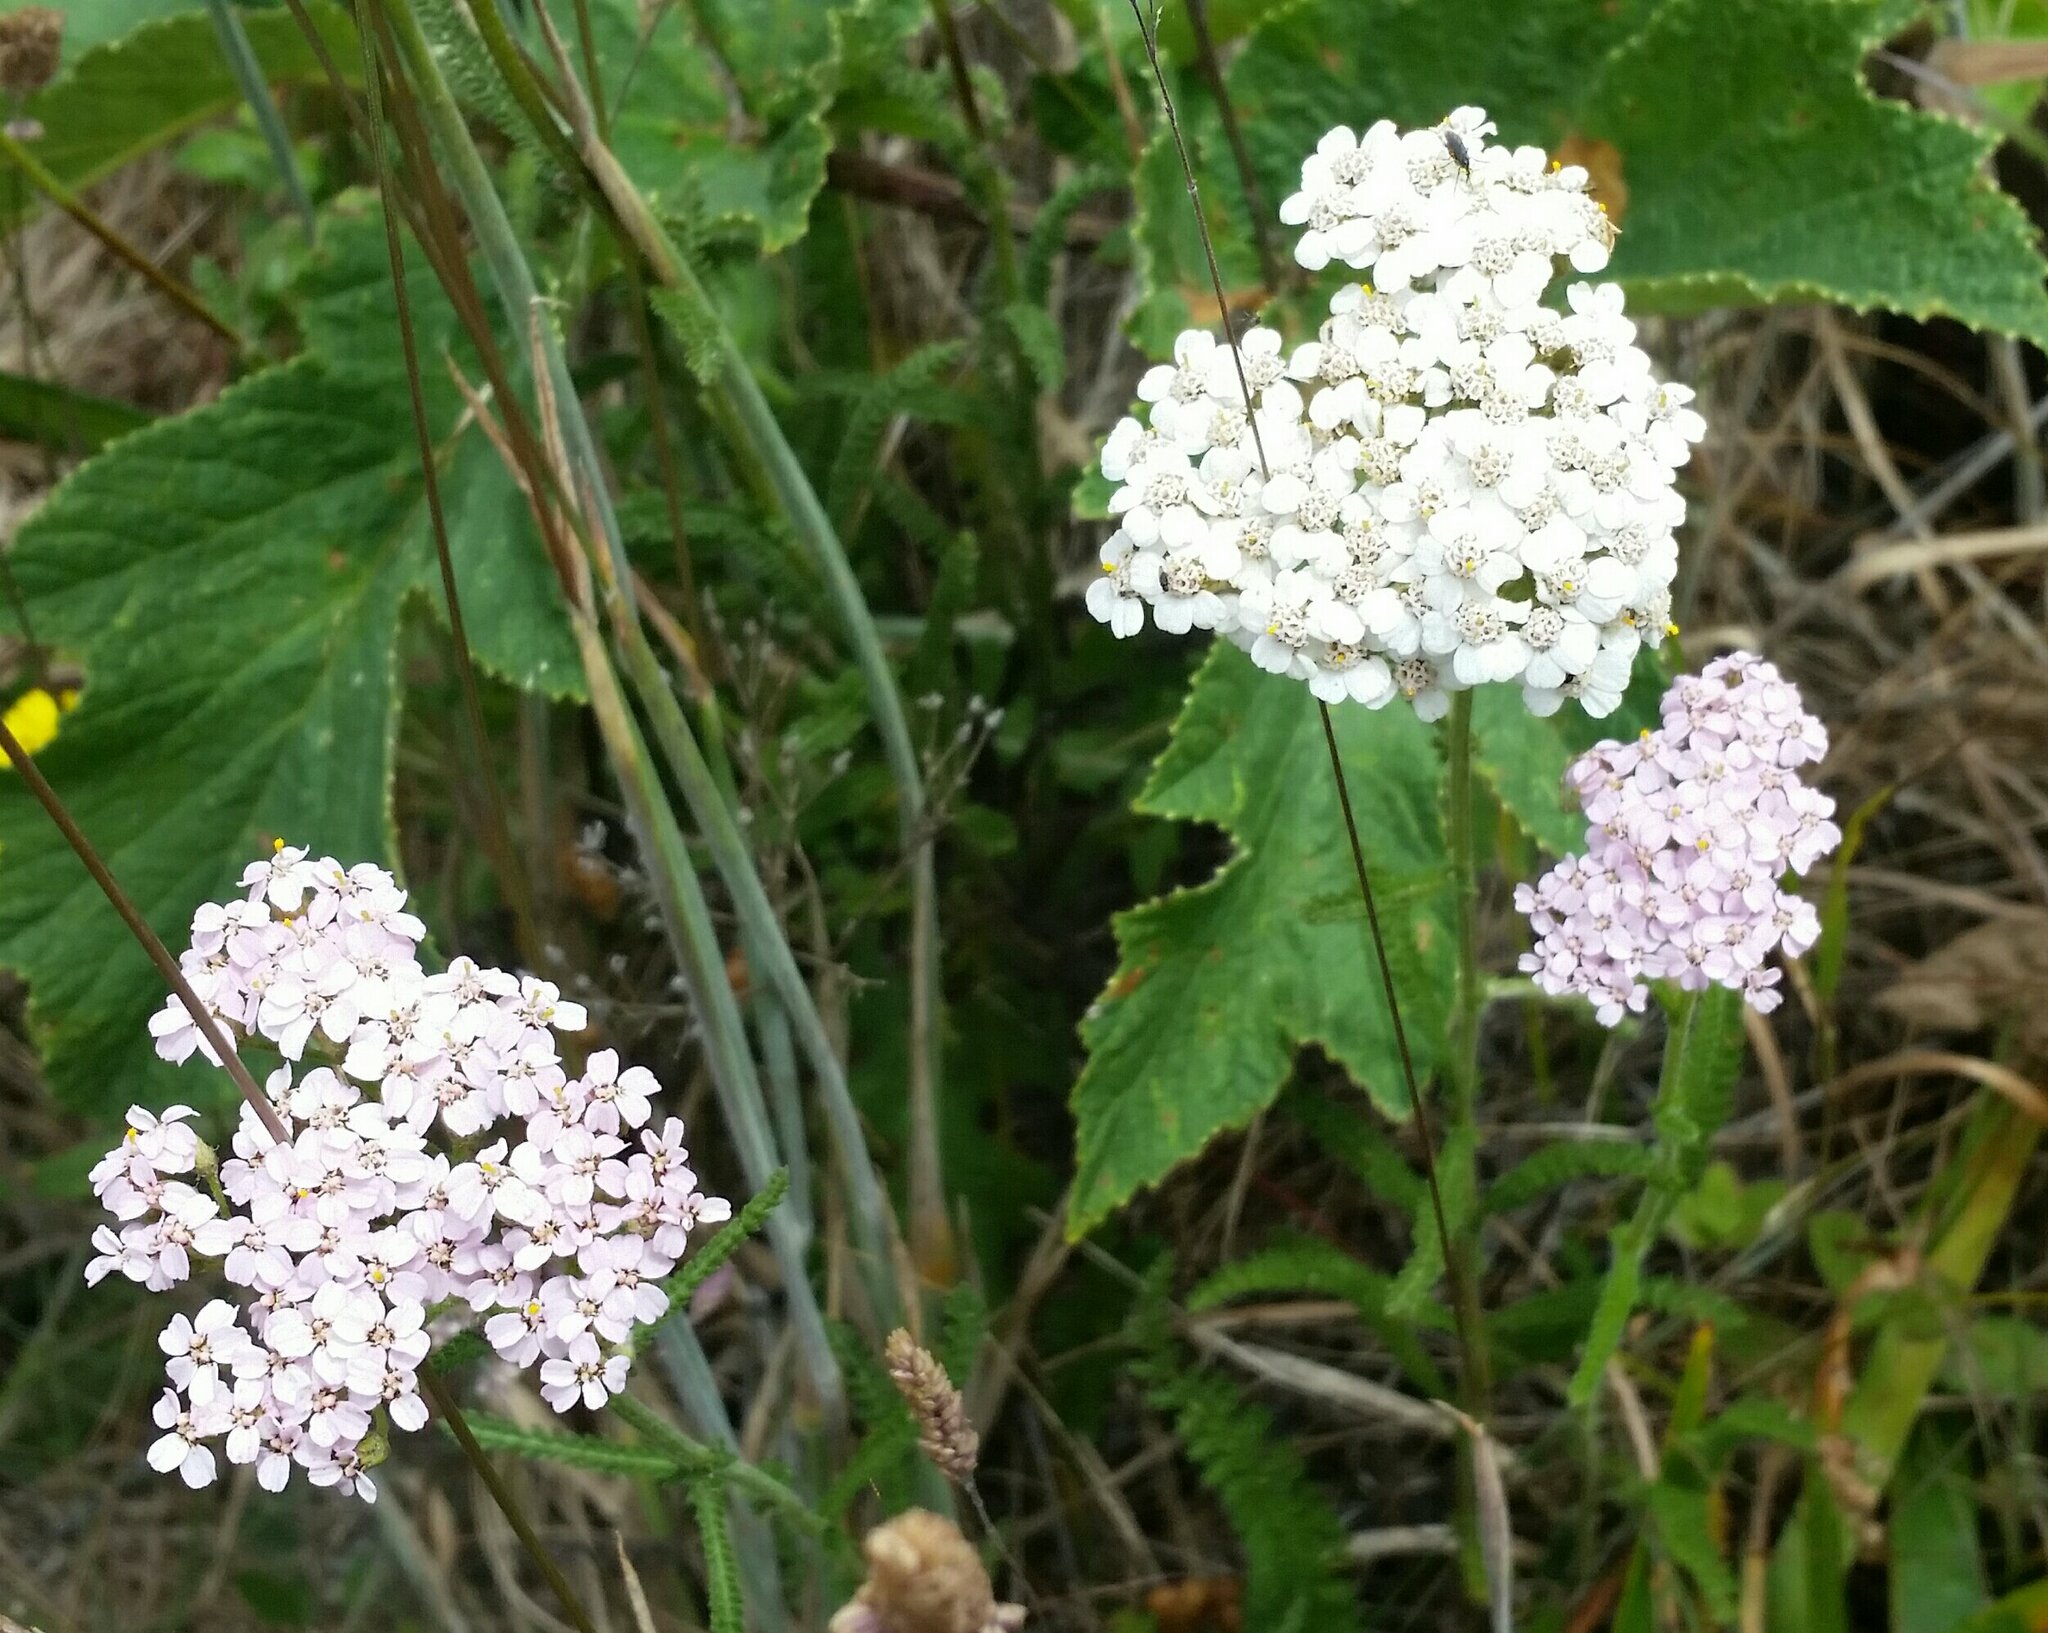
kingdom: Plantae
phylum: Tracheophyta
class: Magnoliopsida
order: Asterales
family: Asteraceae
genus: Achillea
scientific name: Achillea millefolium
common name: Yarrow
